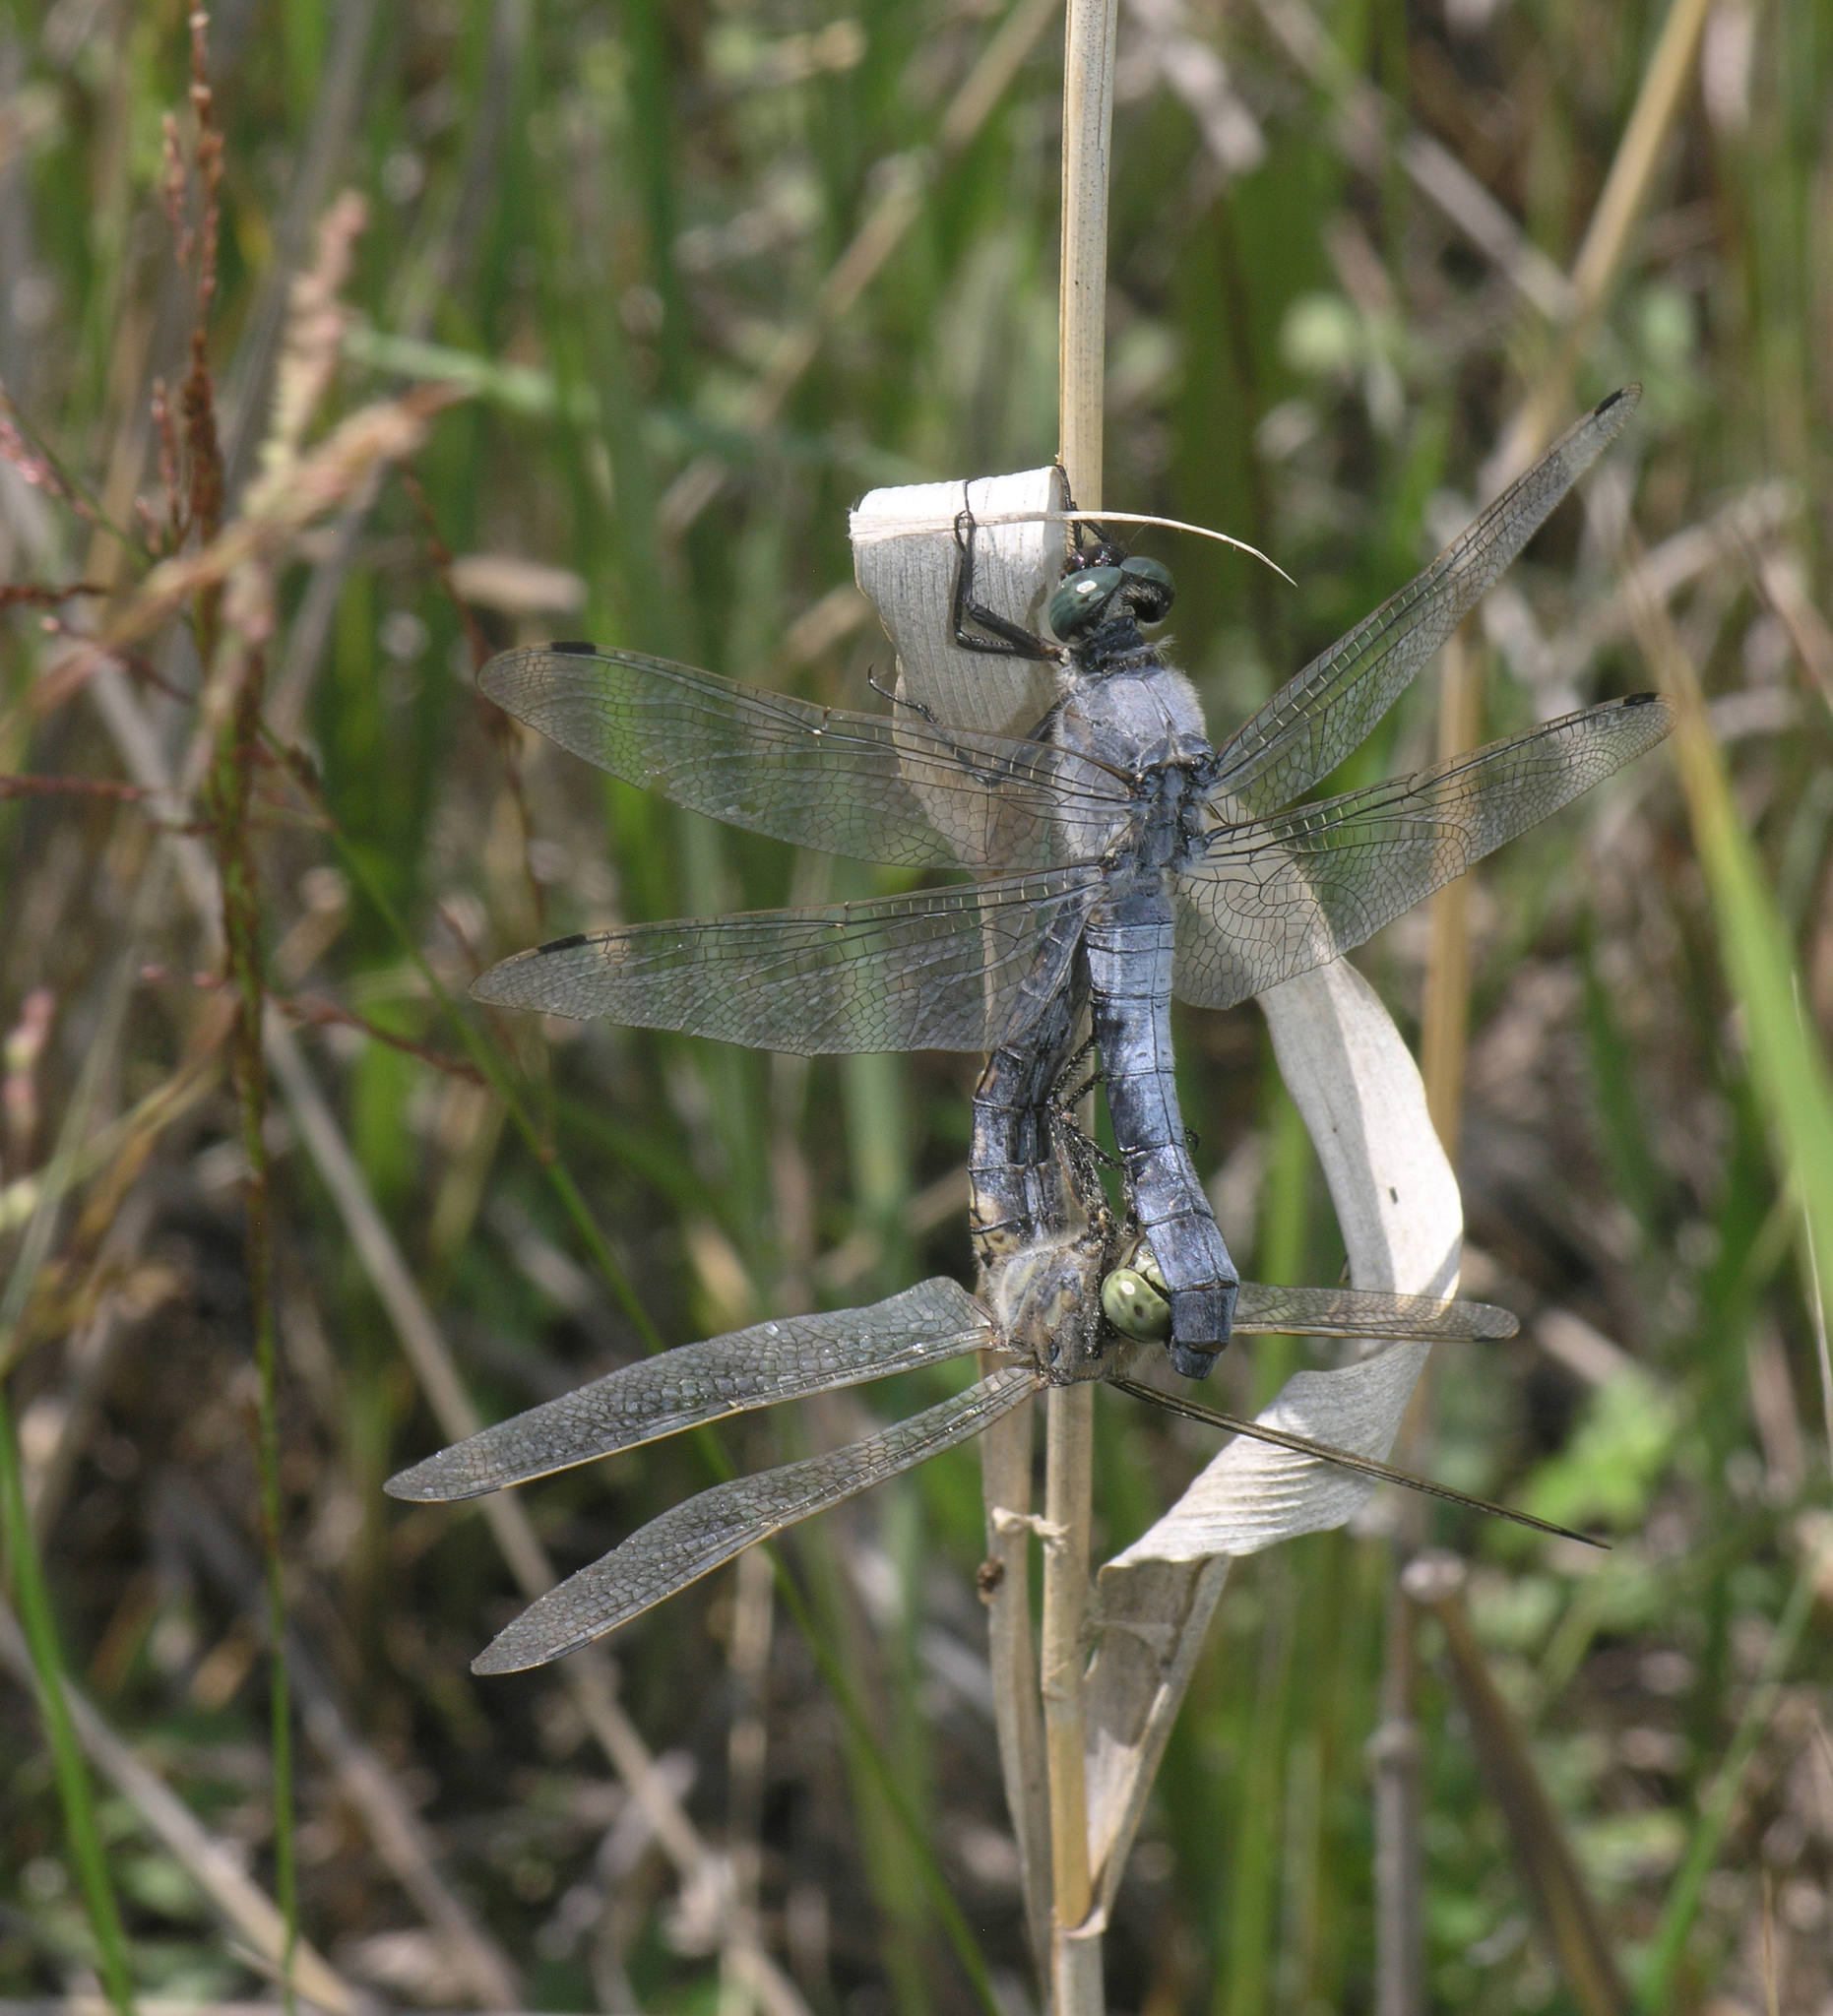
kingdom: Animalia
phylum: Arthropoda
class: Insecta
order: Odonata
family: Libellulidae
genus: Orthetrum
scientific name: Orthetrum cancellatum
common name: Black-tailed skimmer
